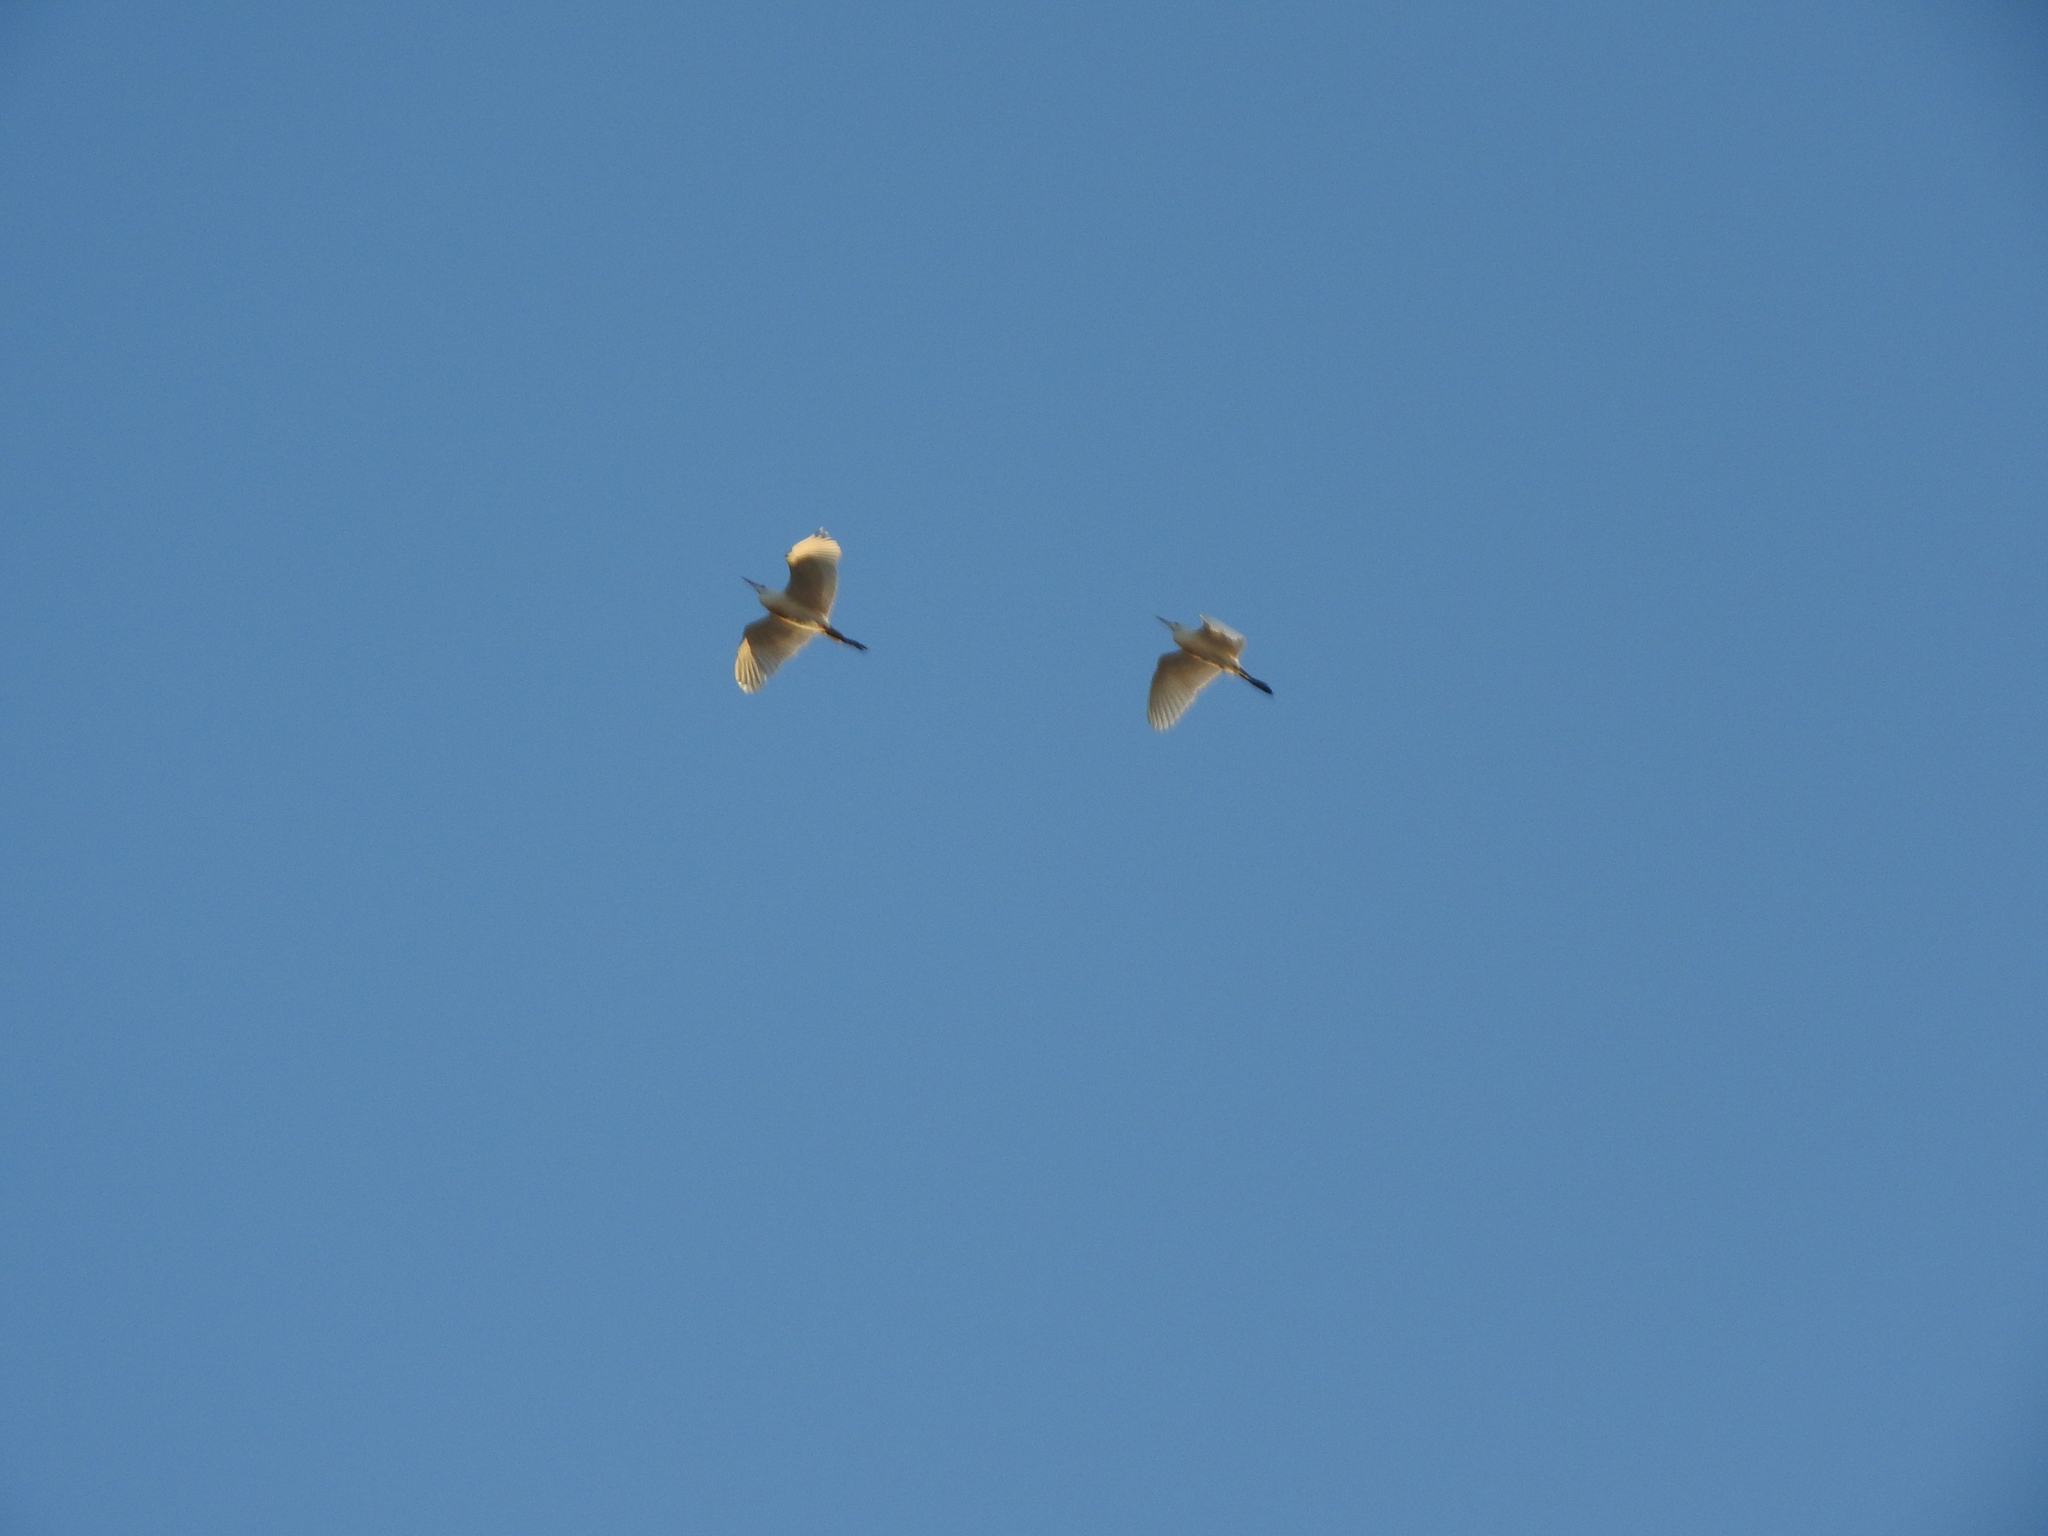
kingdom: Animalia
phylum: Chordata
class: Aves
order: Pelecaniformes
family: Ardeidae
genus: Bubulcus
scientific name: Bubulcus ibis
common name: Cattle egret
